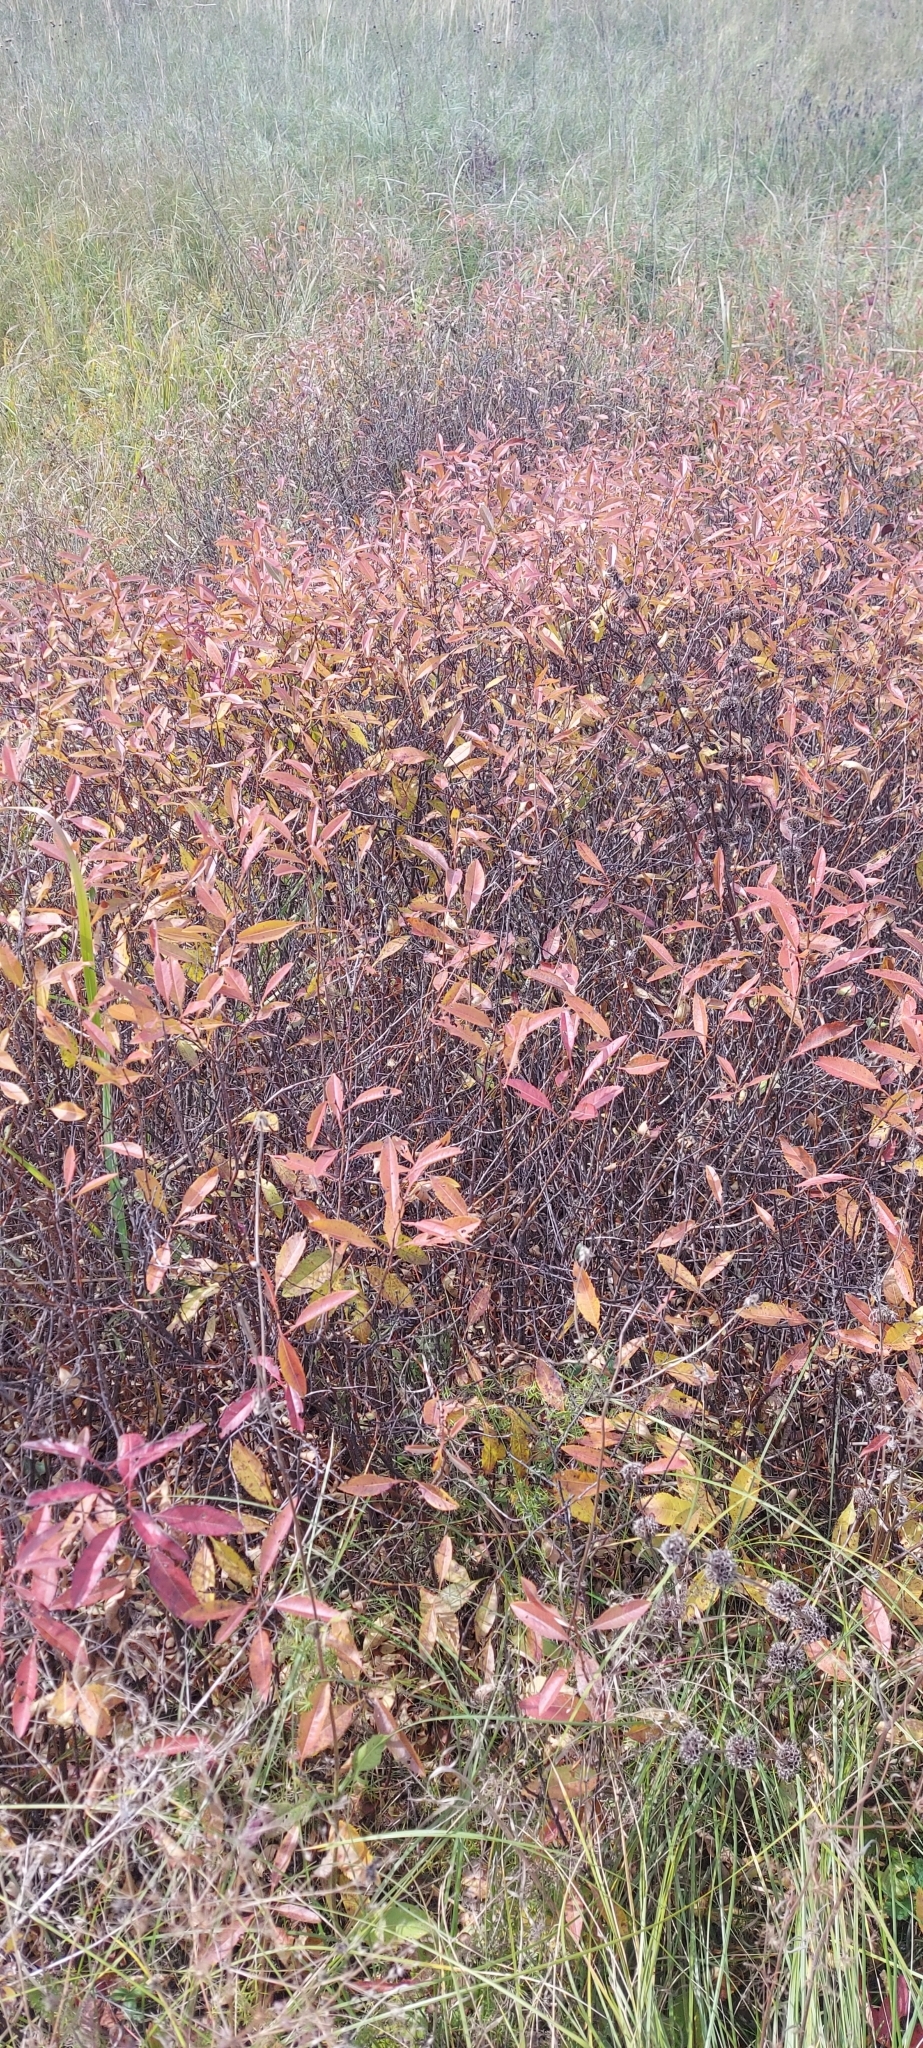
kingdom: Plantae
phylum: Tracheophyta
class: Magnoliopsida
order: Rosales
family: Rosaceae
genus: Prunus
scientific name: Prunus tenella
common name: Dwarf russian almond
